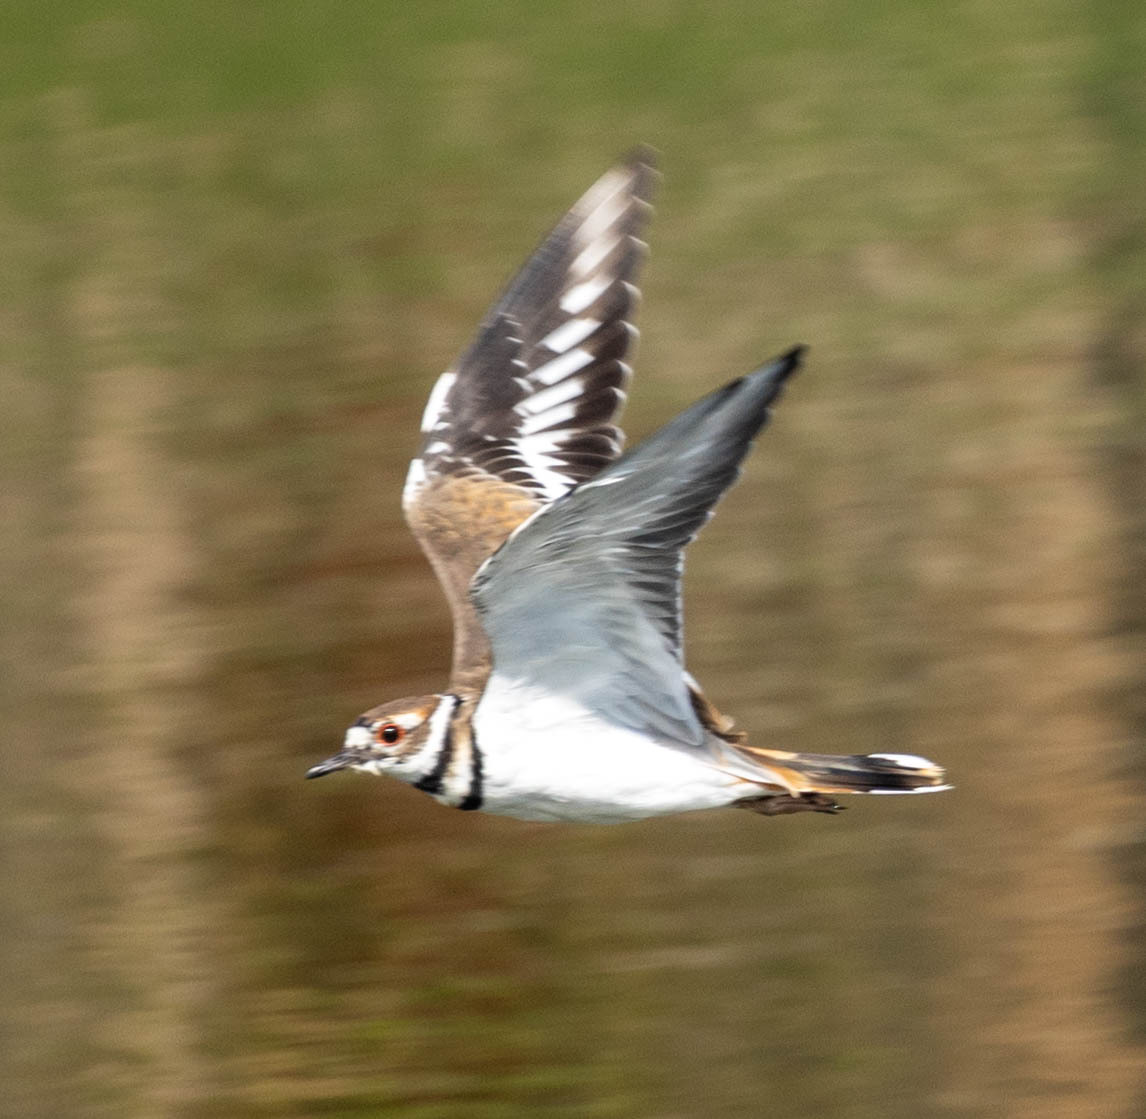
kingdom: Animalia
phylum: Chordata
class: Aves
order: Charadriiformes
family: Charadriidae
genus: Charadrius
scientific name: Charadrius vociferus
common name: Killdeer
